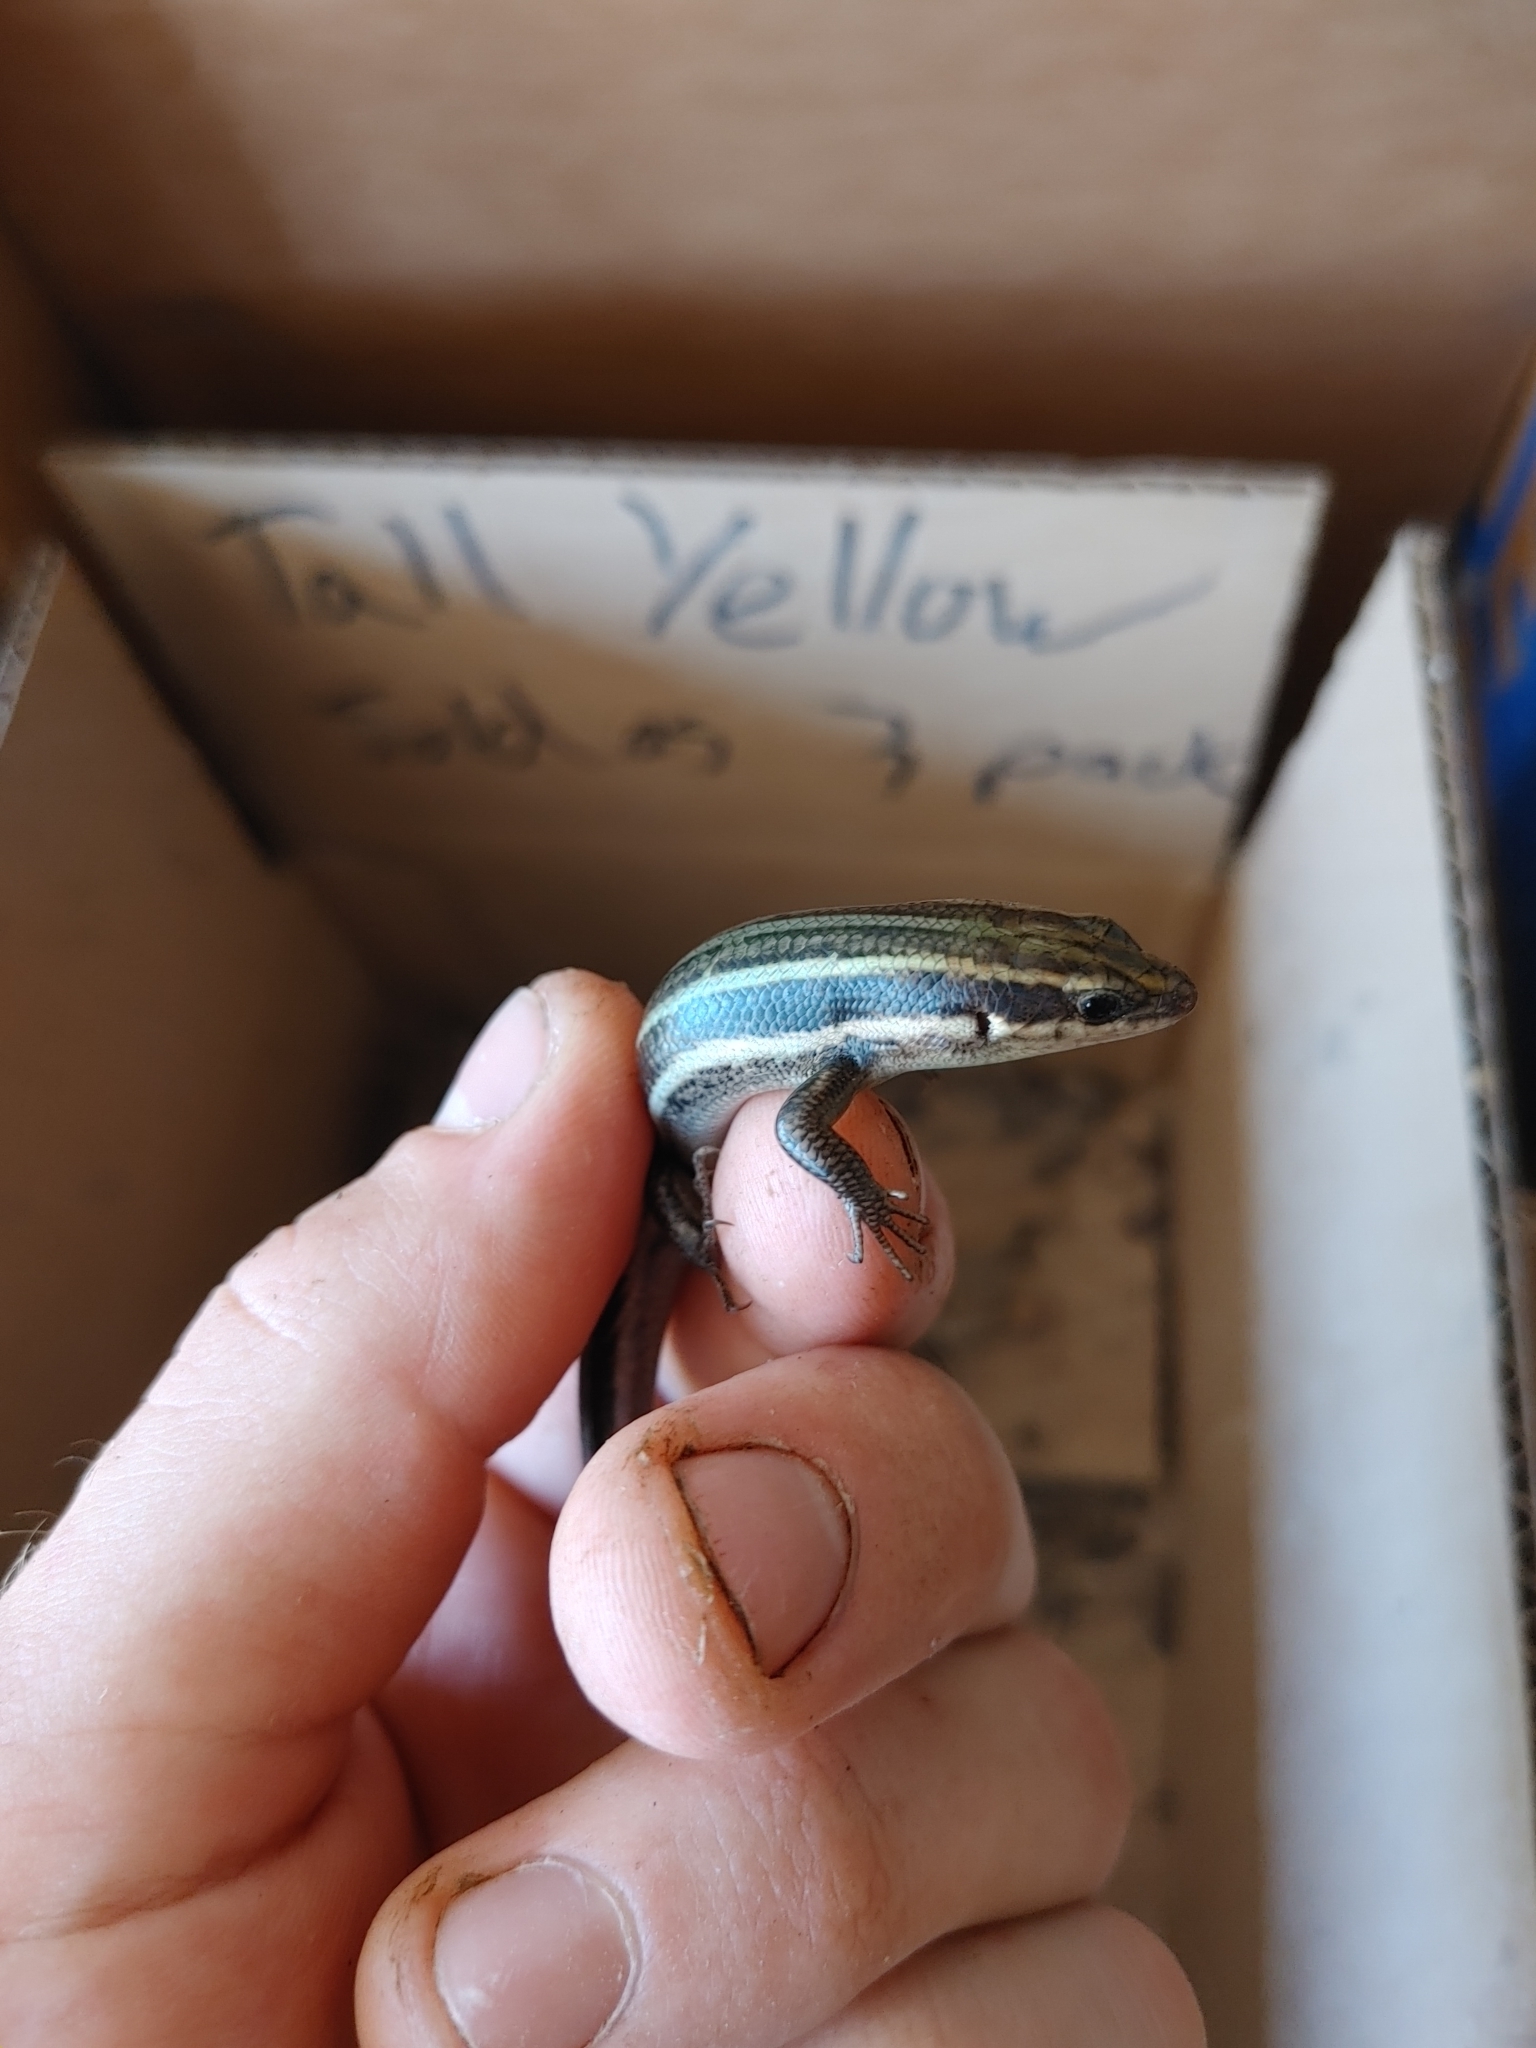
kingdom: Animalia
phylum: Chordata
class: Squamata
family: Scincidae
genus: Plestiodon
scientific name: Plestiodon fasciatus
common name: Five-lined skink
